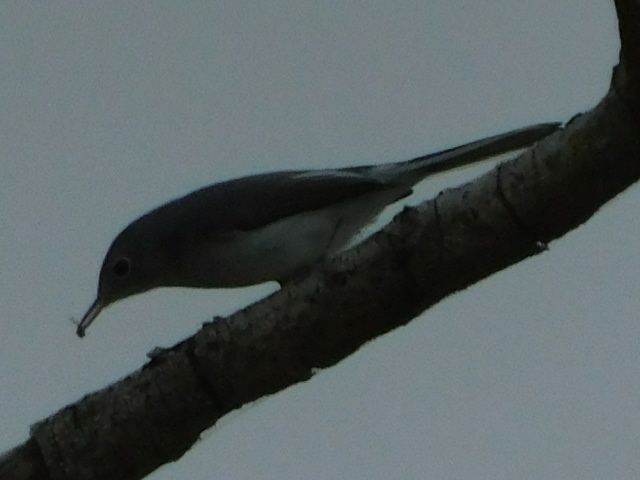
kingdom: Animalia
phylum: Chordata
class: Aves
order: Passeriformes
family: Polioptilidae
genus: Polioptila
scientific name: Polioptila caerulea
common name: Blue-gray gnatcatcher
